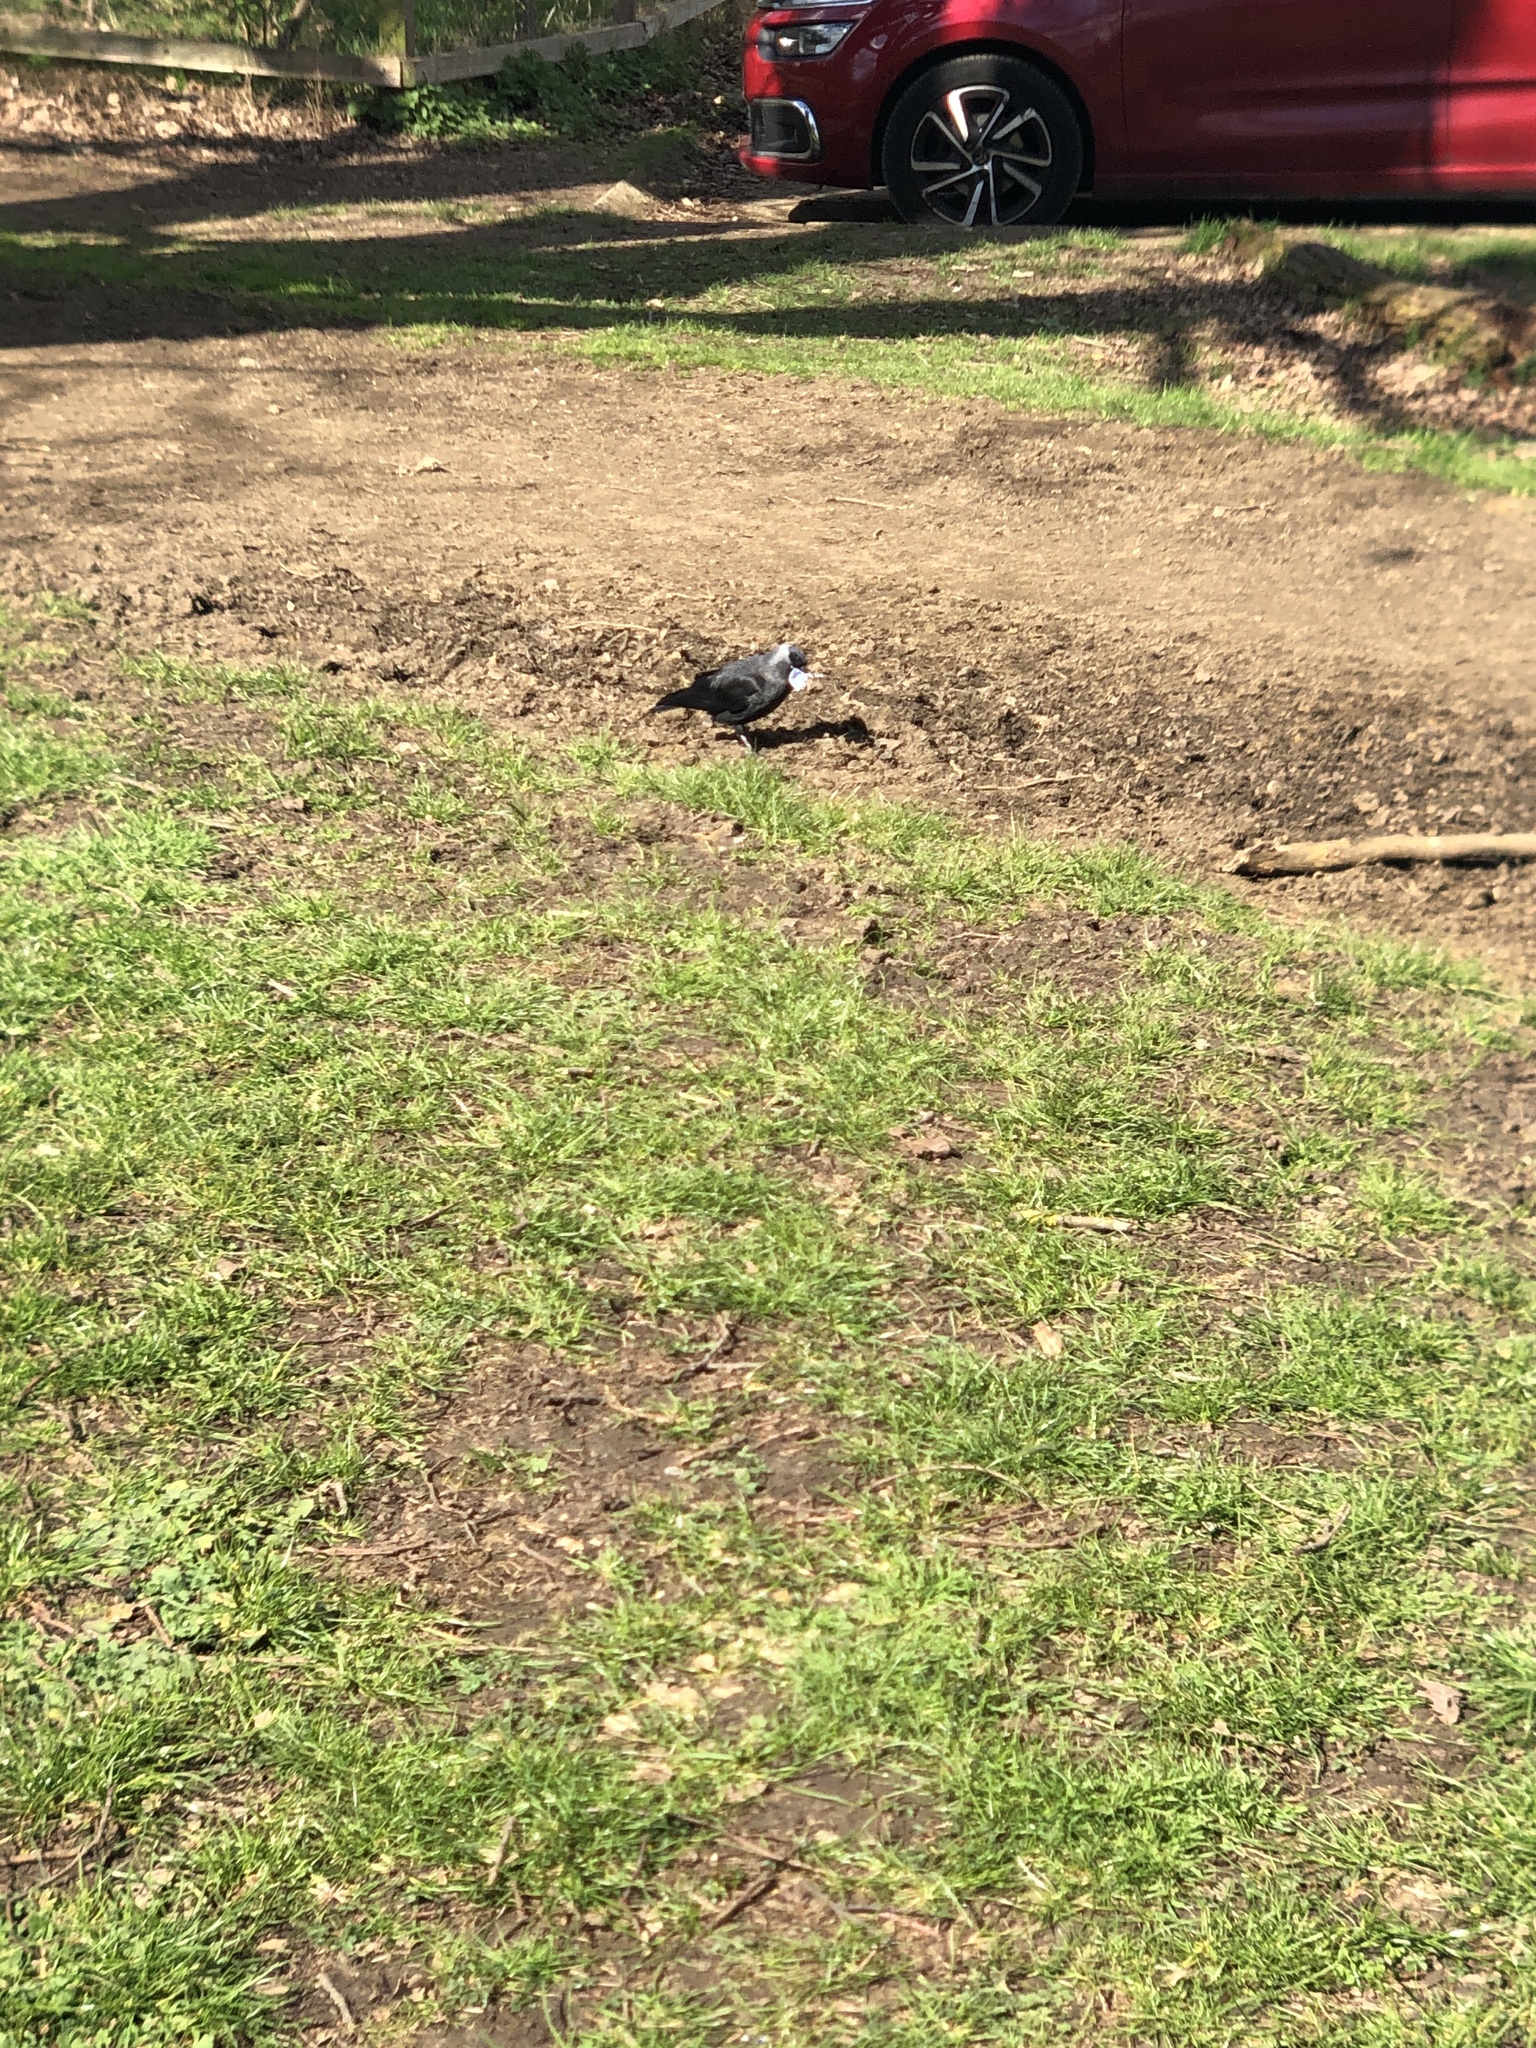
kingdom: Animalia
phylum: Chordata
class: Aves
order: Passeriformes
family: Corvidae
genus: Coloeus
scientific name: Coloeus monedula
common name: Western jackdaw
